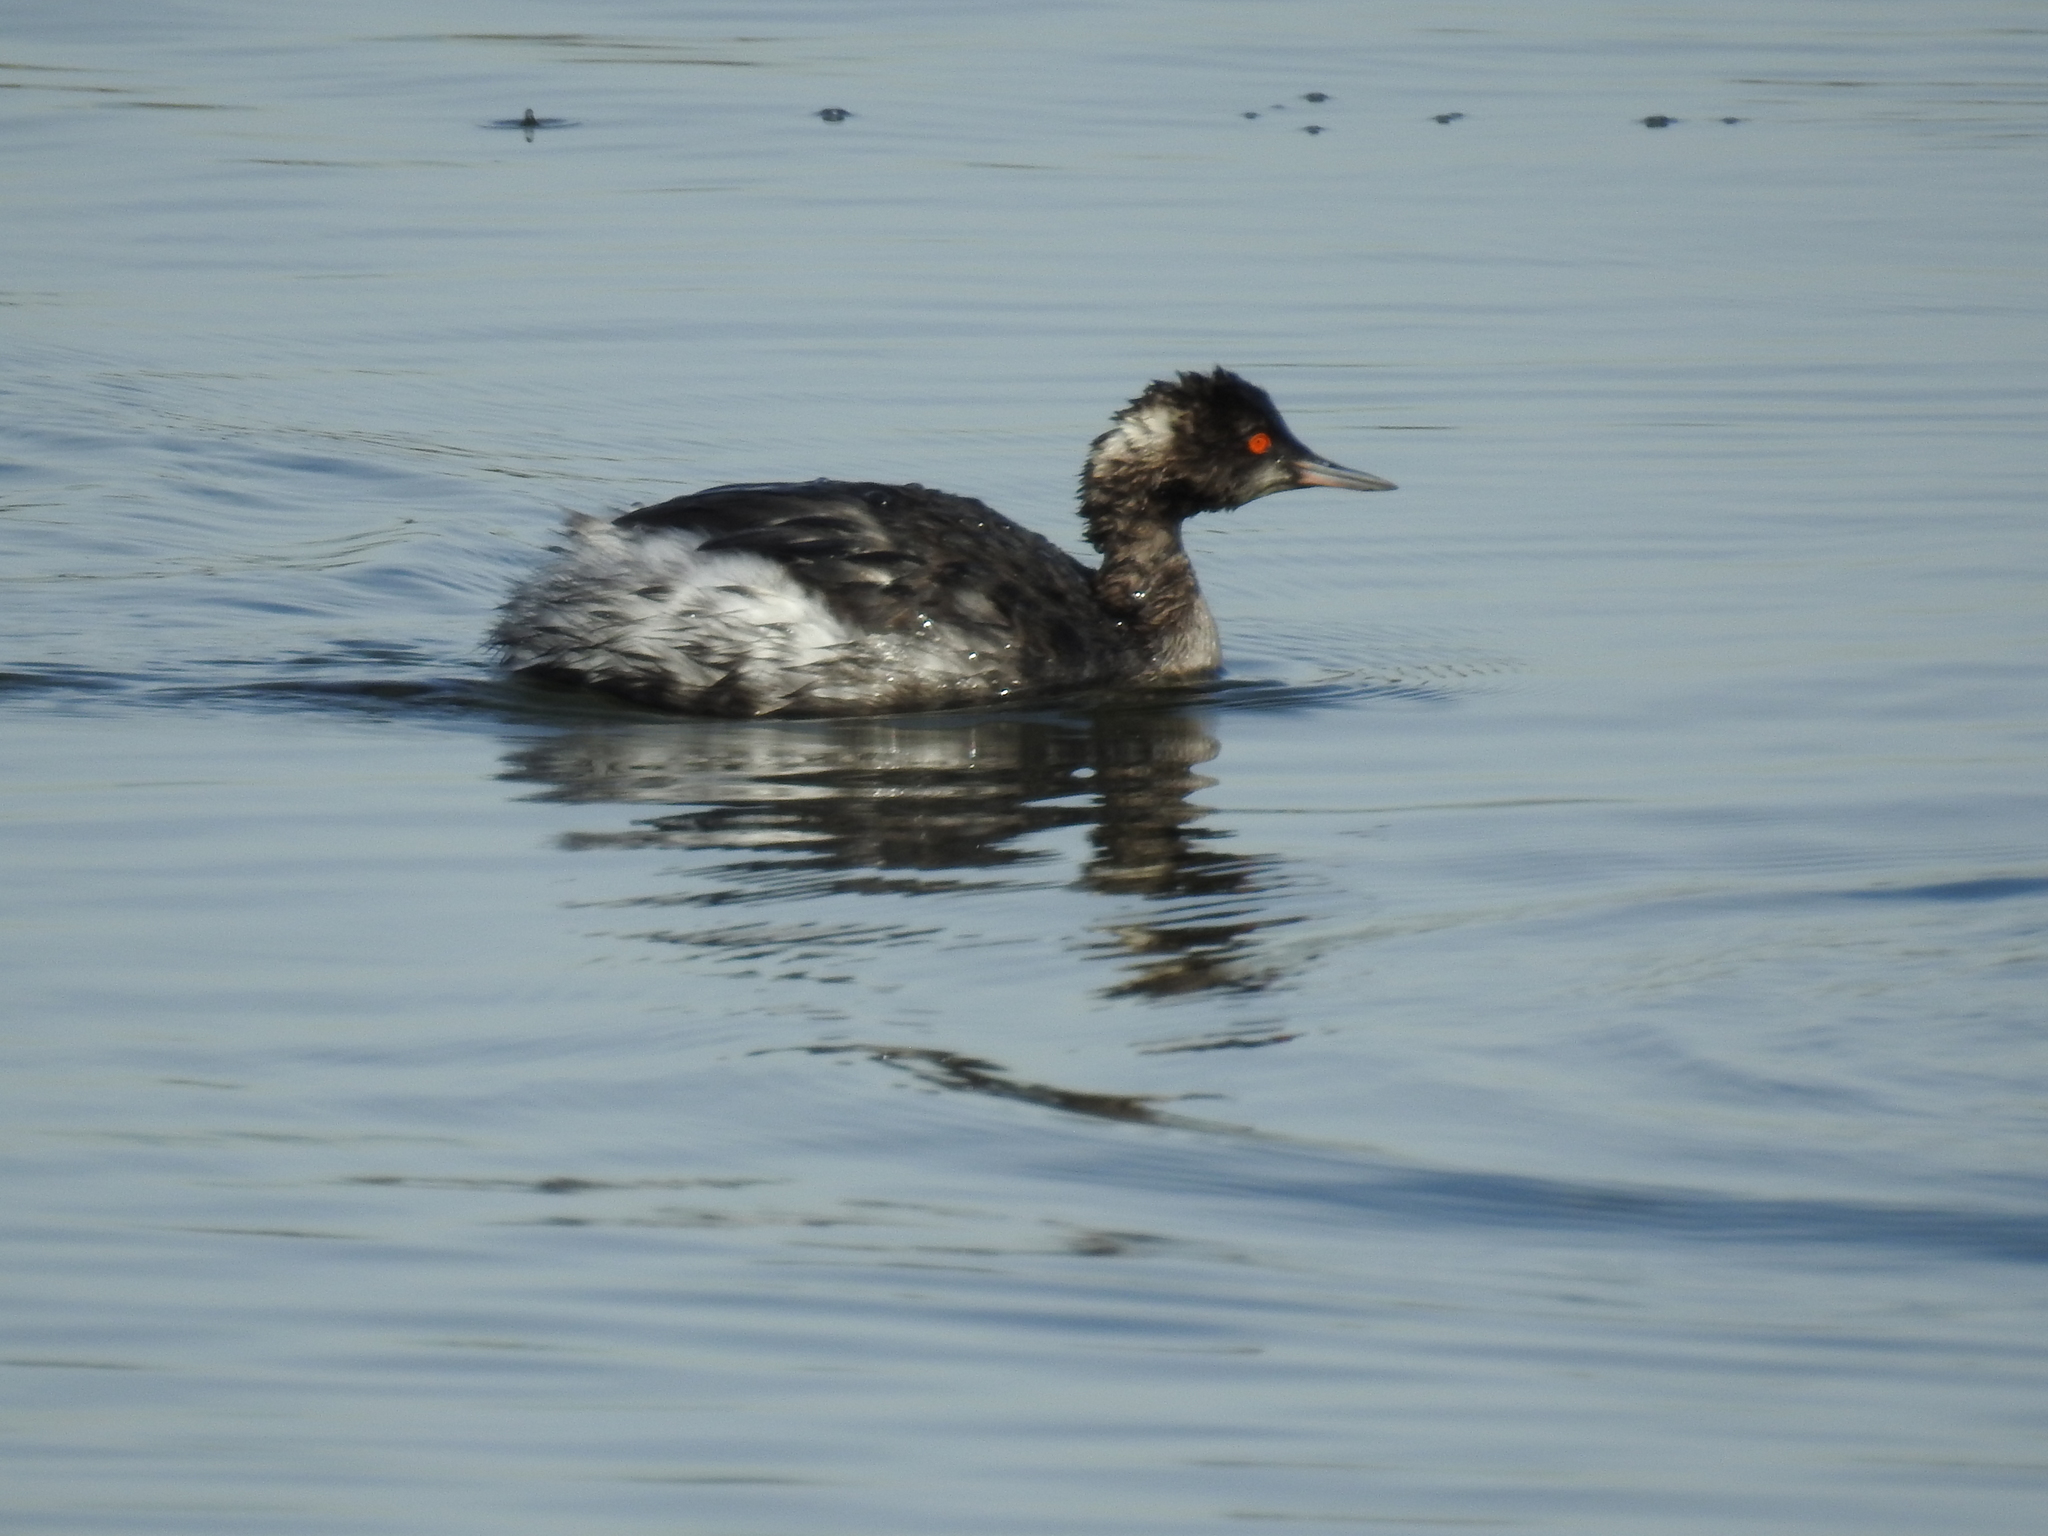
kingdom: Animalia
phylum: Chordata
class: Aves
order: Podicipediformes
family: Podicipedidae
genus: Podiceps
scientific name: Podiceps nigricollis
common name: Black-necked grebe
